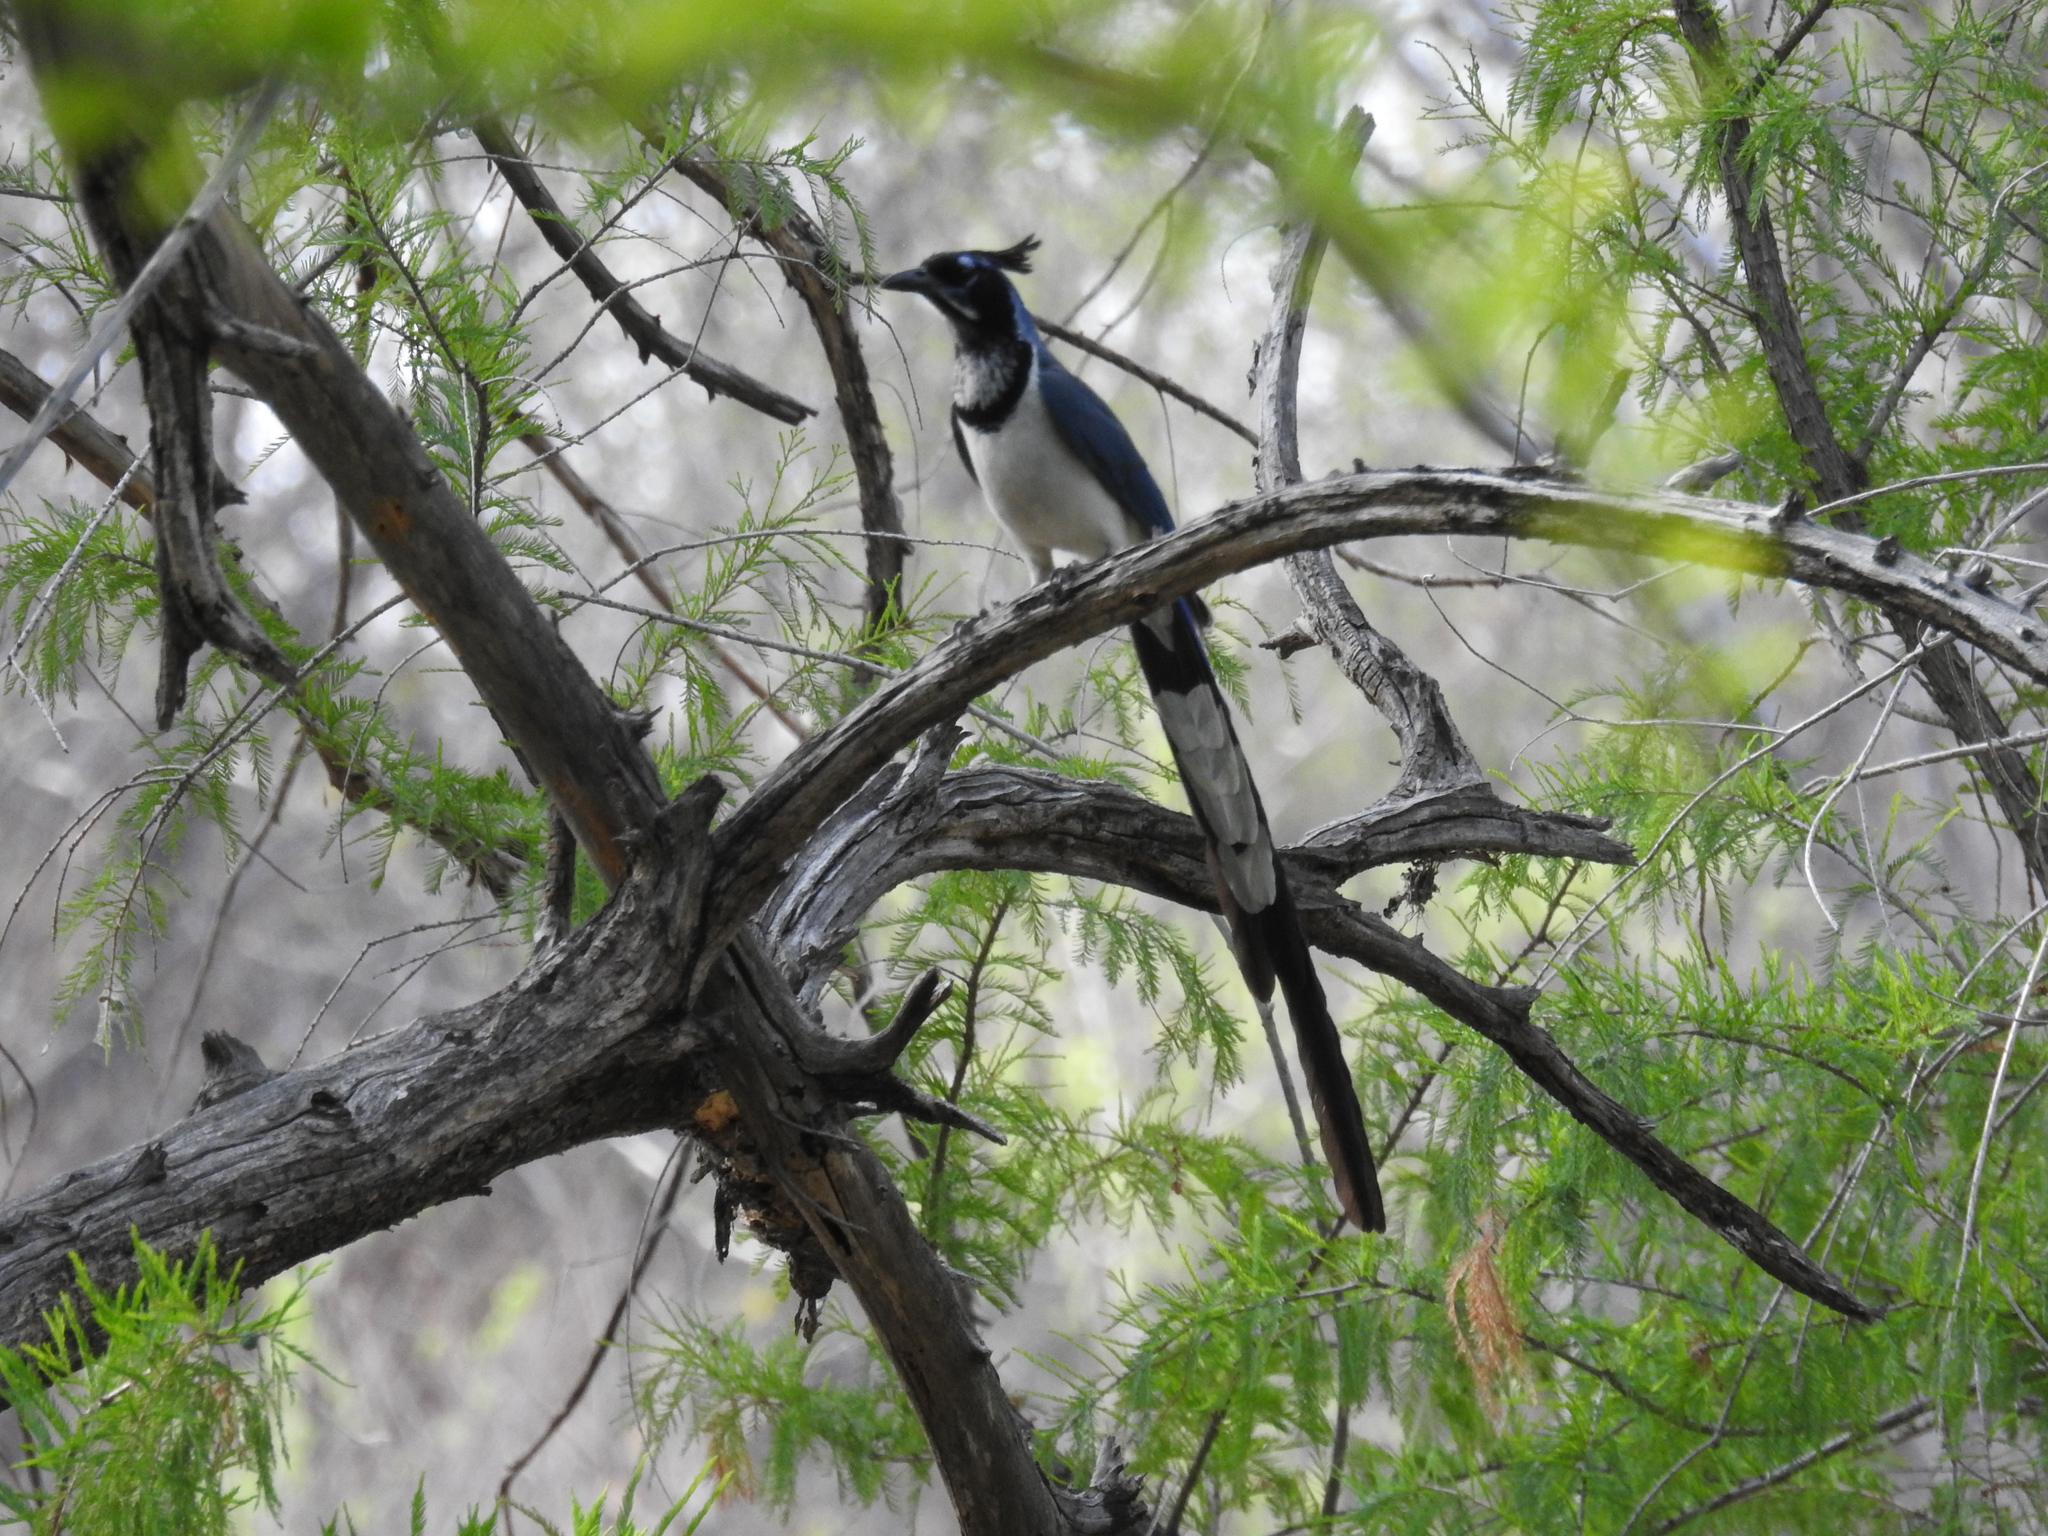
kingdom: Animalia
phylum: Chordata
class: Aves
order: Passeriformes
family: Corvidae
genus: Calocitta
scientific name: Calocitta colliei
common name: Black-throated magpie-jay
